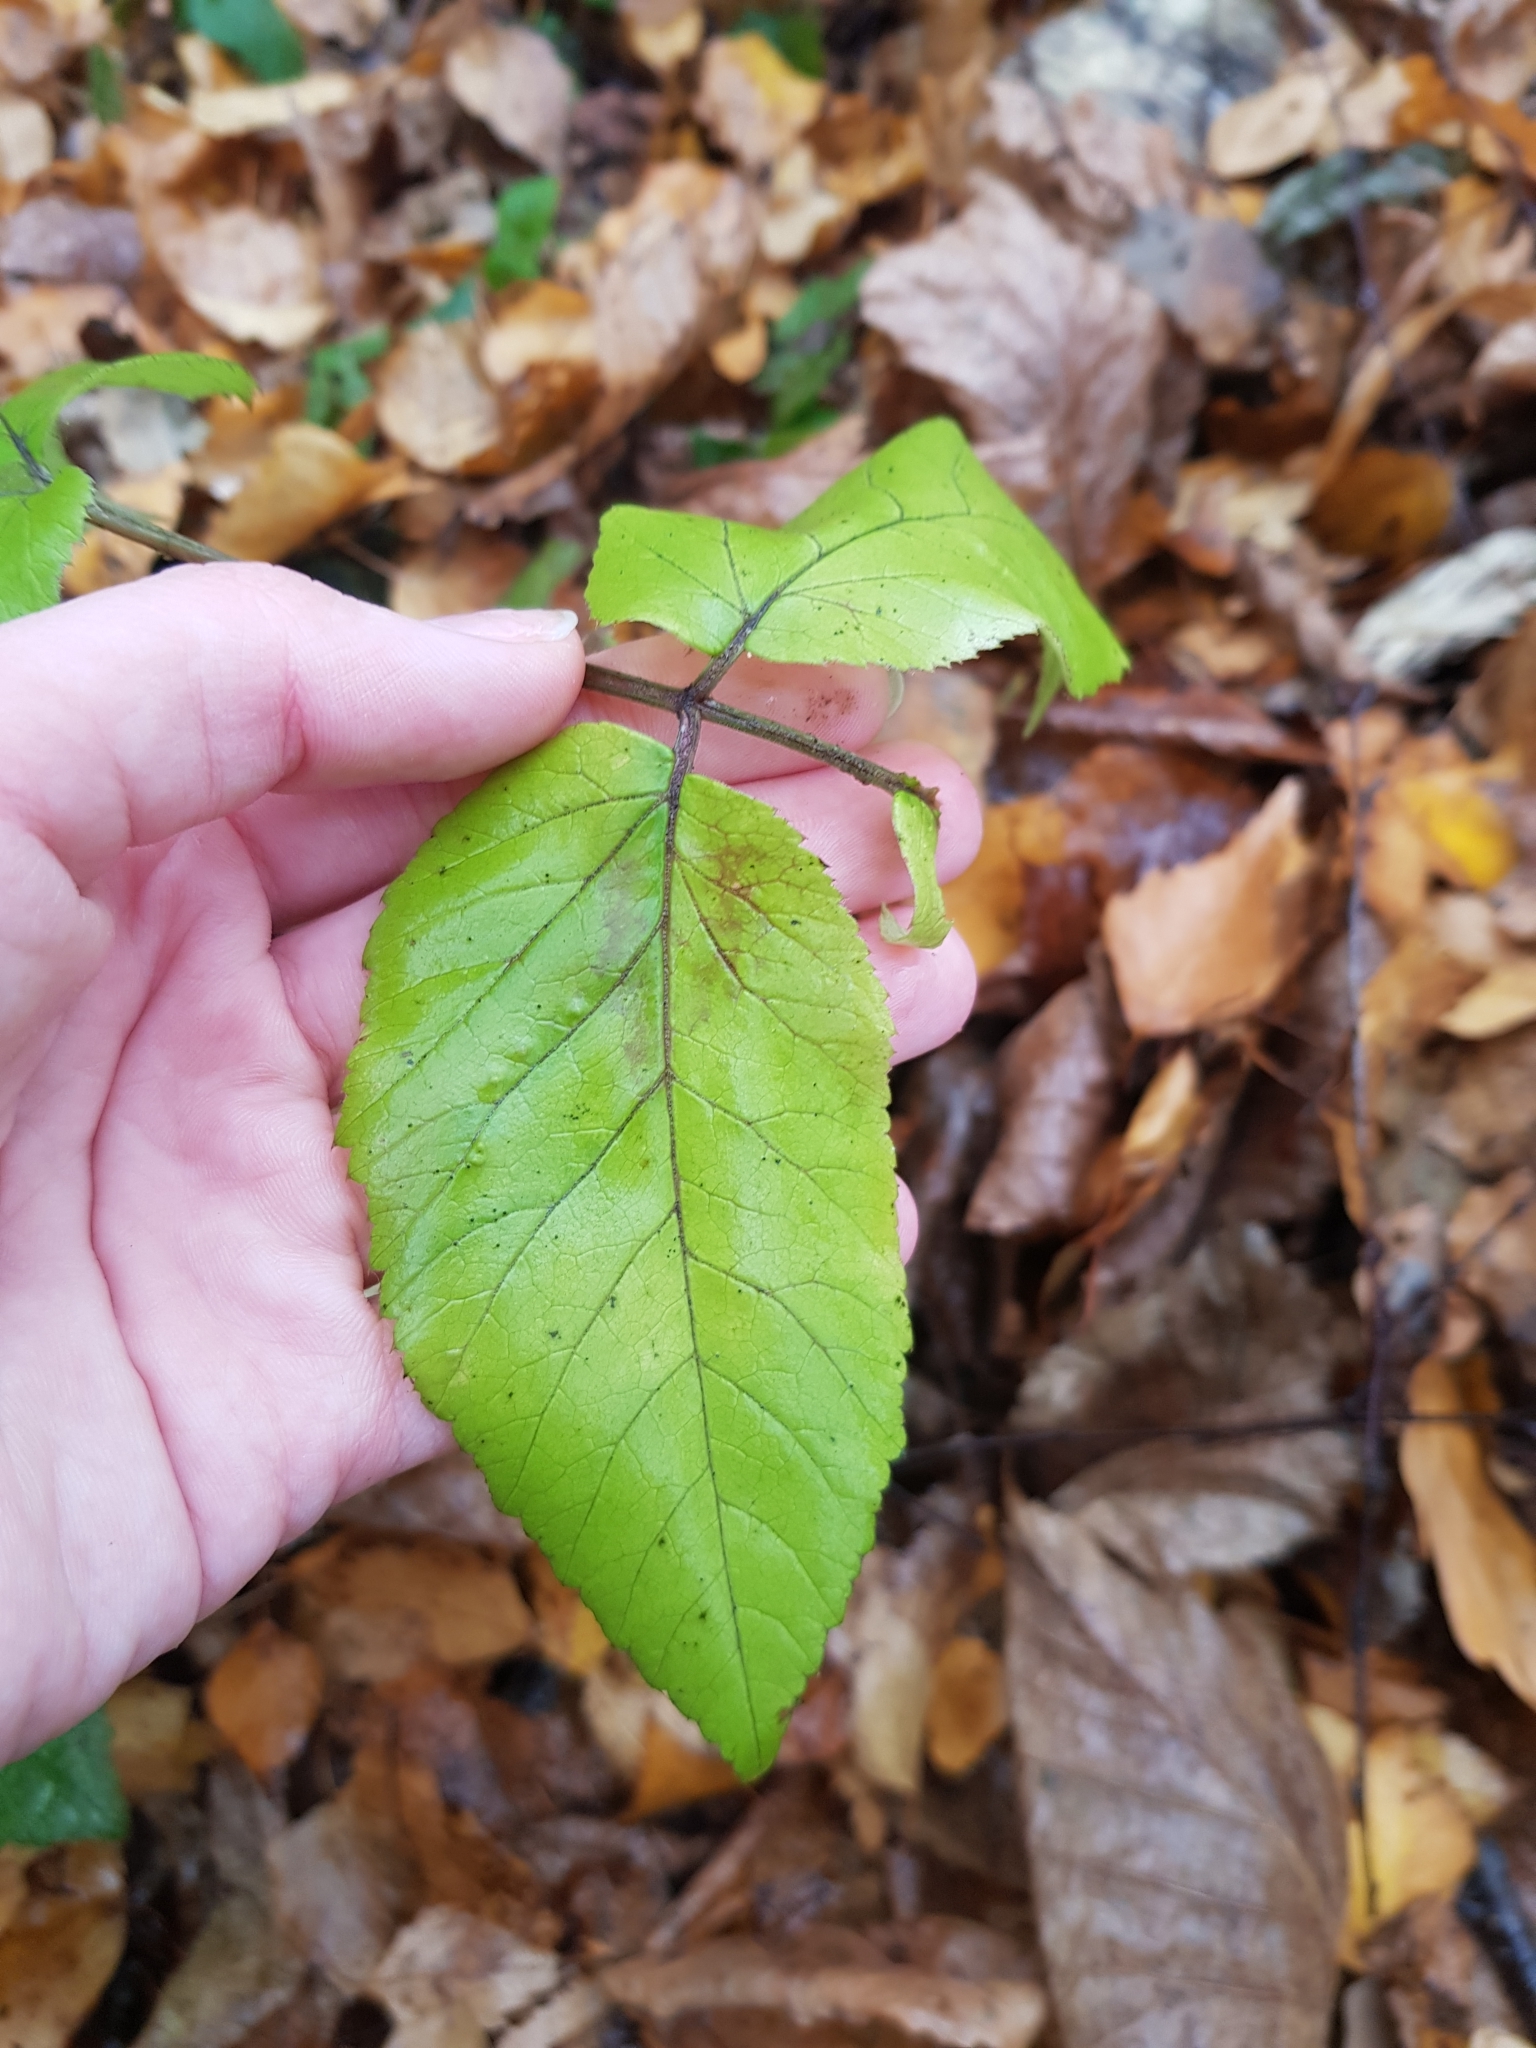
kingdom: Plantae
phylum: Tracheophyta
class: Magnoliopsida
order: Apiales
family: Apiaceae
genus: Aegopodium
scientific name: Aegopodium podagraria
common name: Ground-elder
